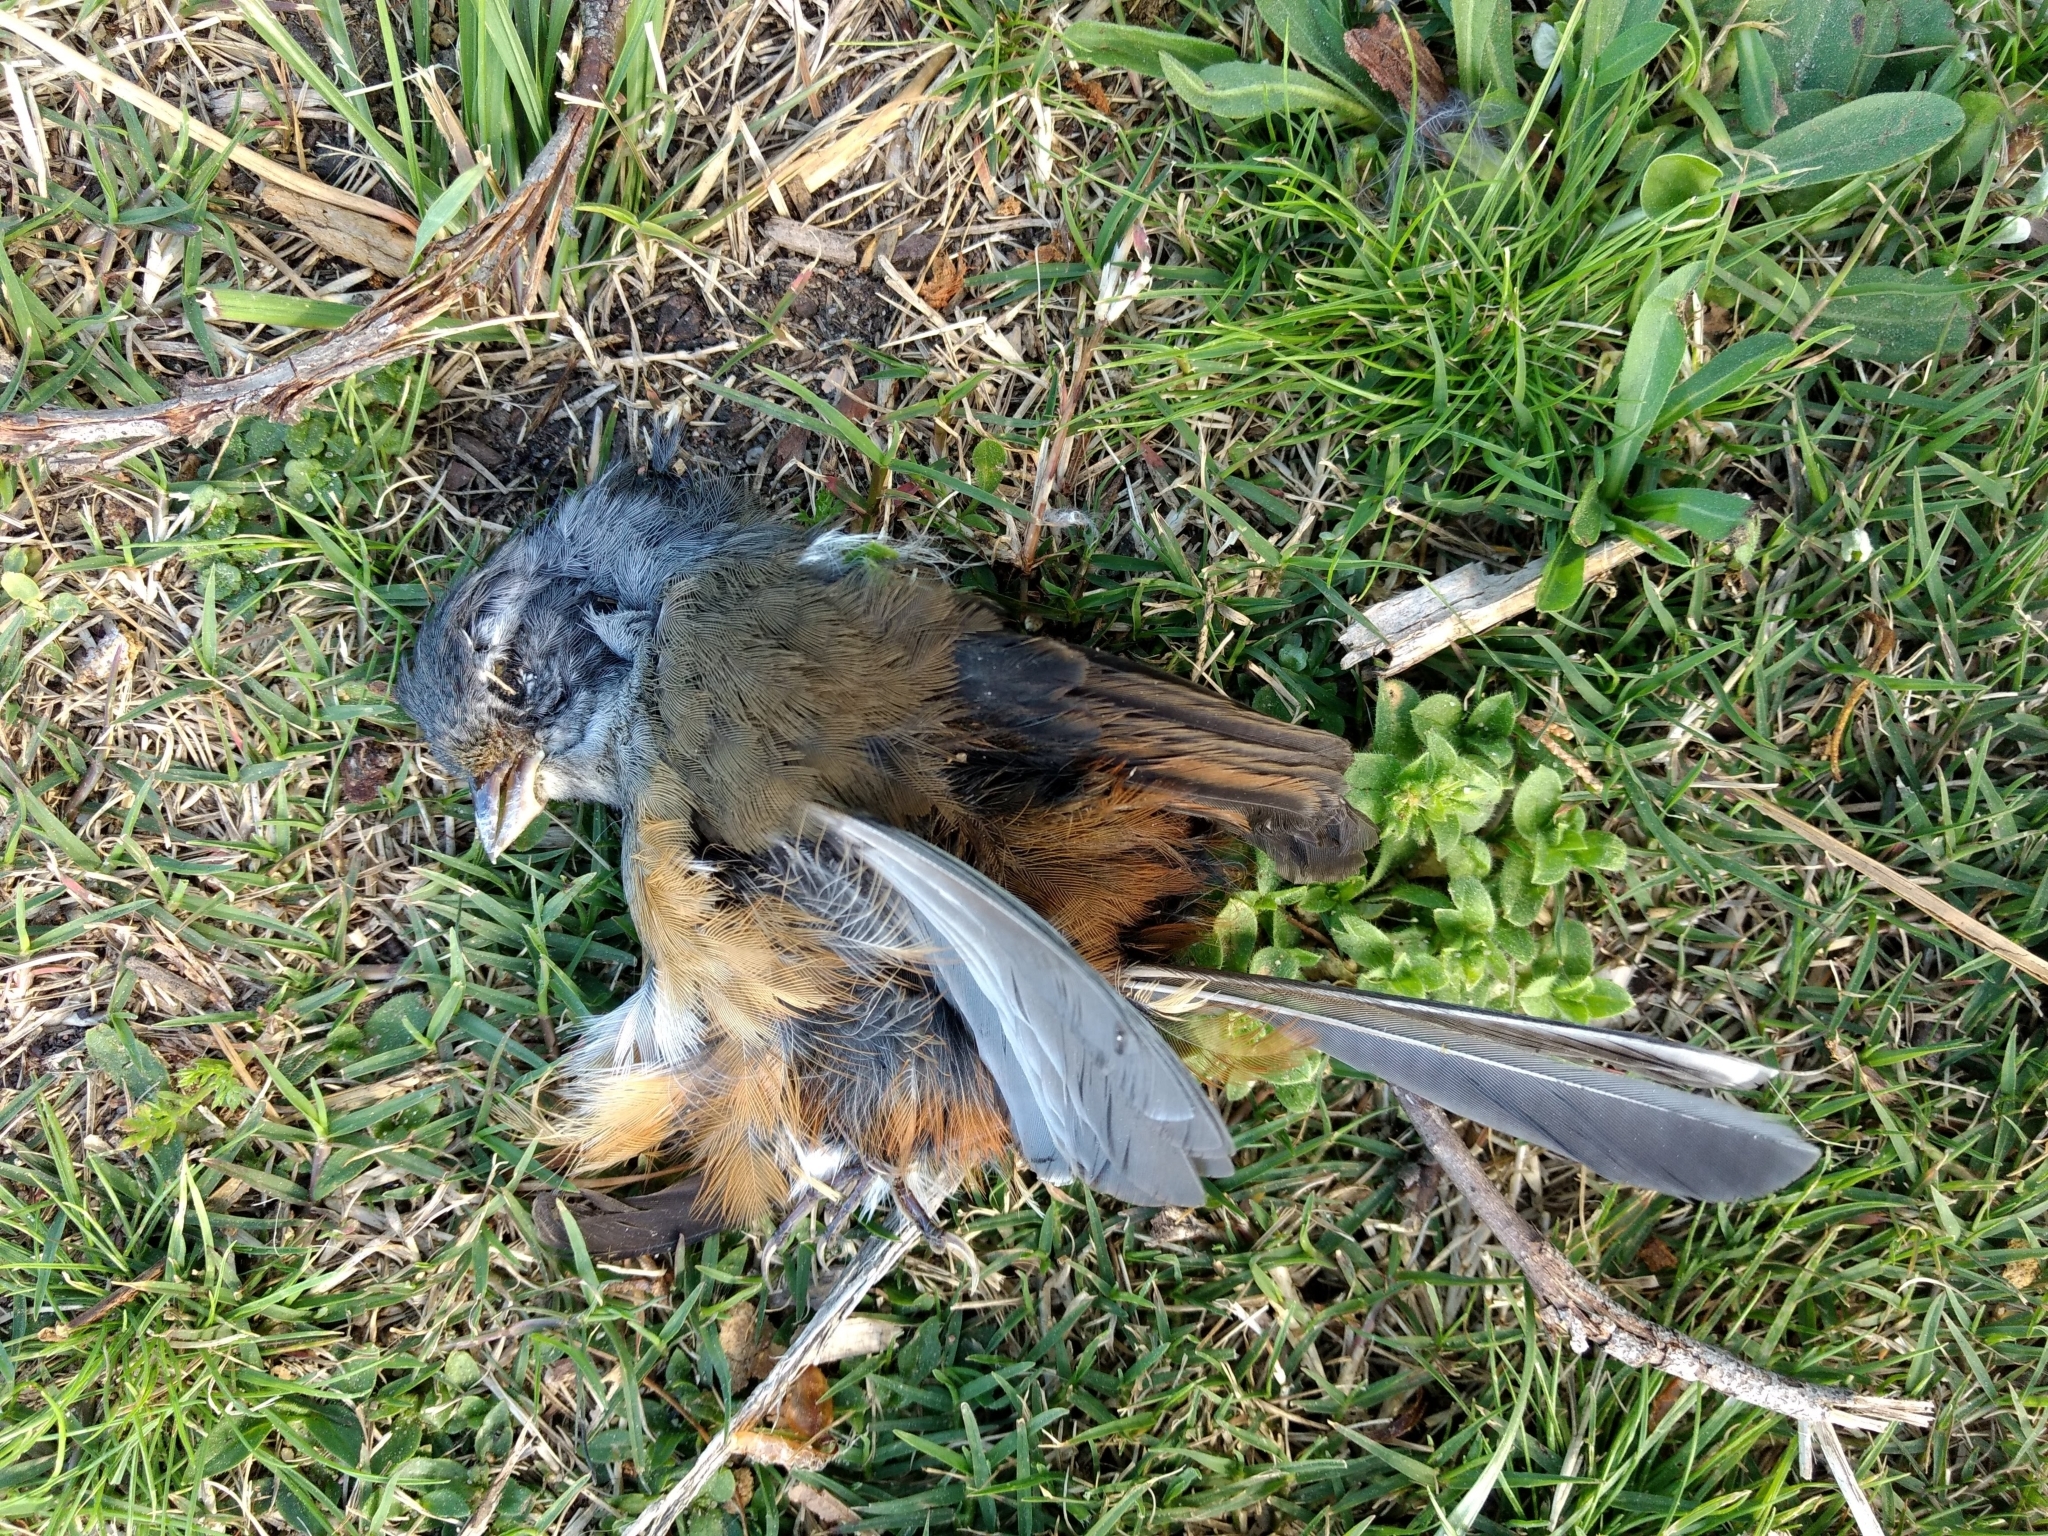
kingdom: Animalia
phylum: Chordata
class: Aves
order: Passeriformes
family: Thraupidae
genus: Microspingus
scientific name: Microspingus cabanisi
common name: Gray-throated warbling-finch
